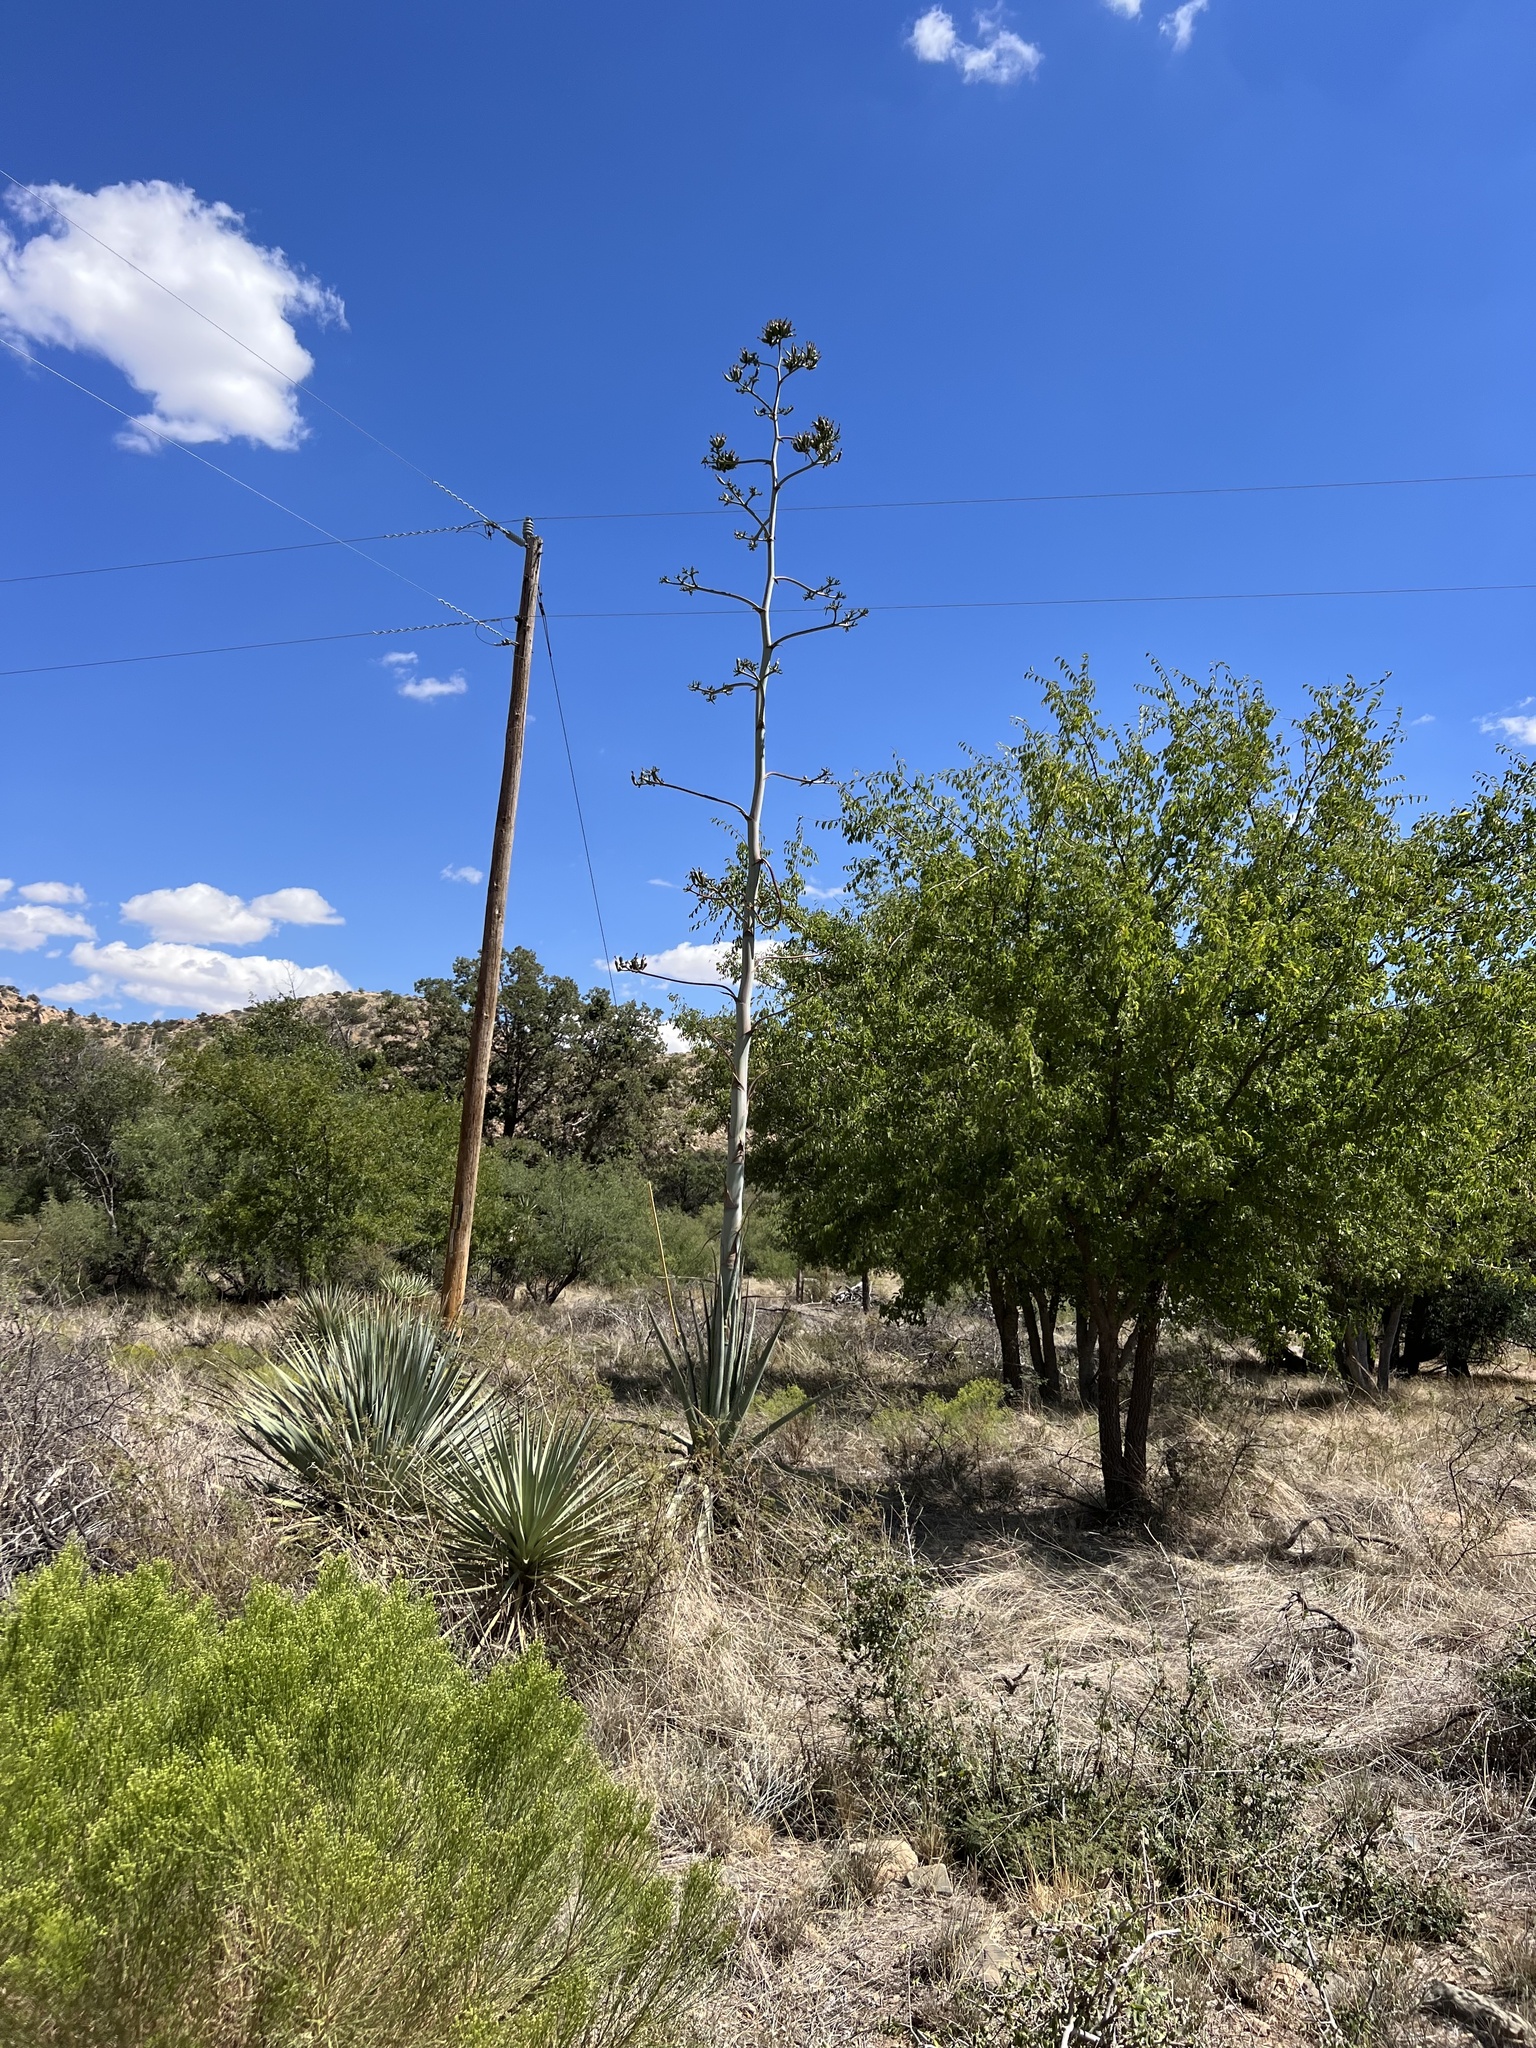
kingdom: Plantae
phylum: Tracheophyta
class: Liliopsida
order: Asparagales
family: Asparagaceae
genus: Agave
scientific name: Agave palmeri
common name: Palmer agave
